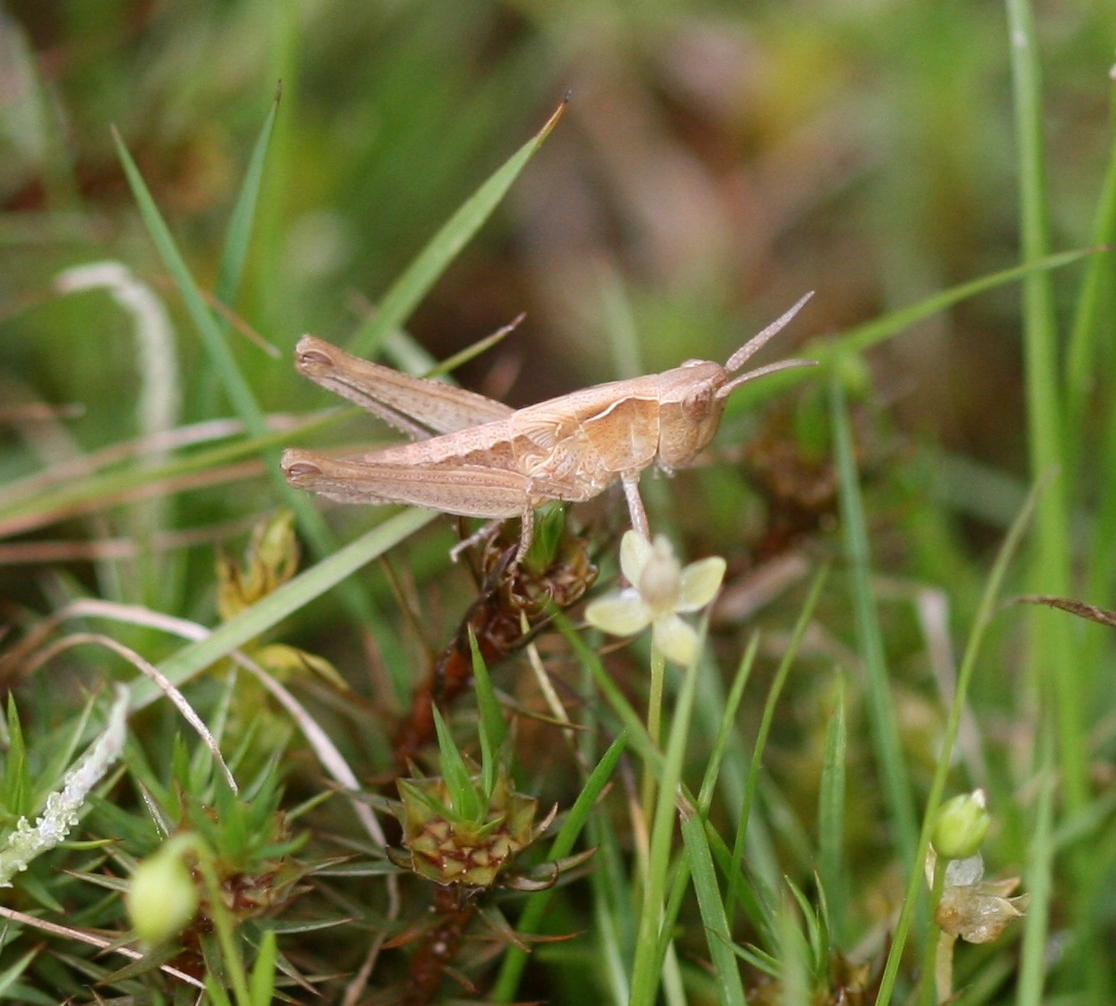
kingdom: Animalia
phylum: Arthropoda
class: Insecta
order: Orthoptera
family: Acrididae
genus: Chorthippus
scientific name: Chorthippus brunneus
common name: Field grasshopper
